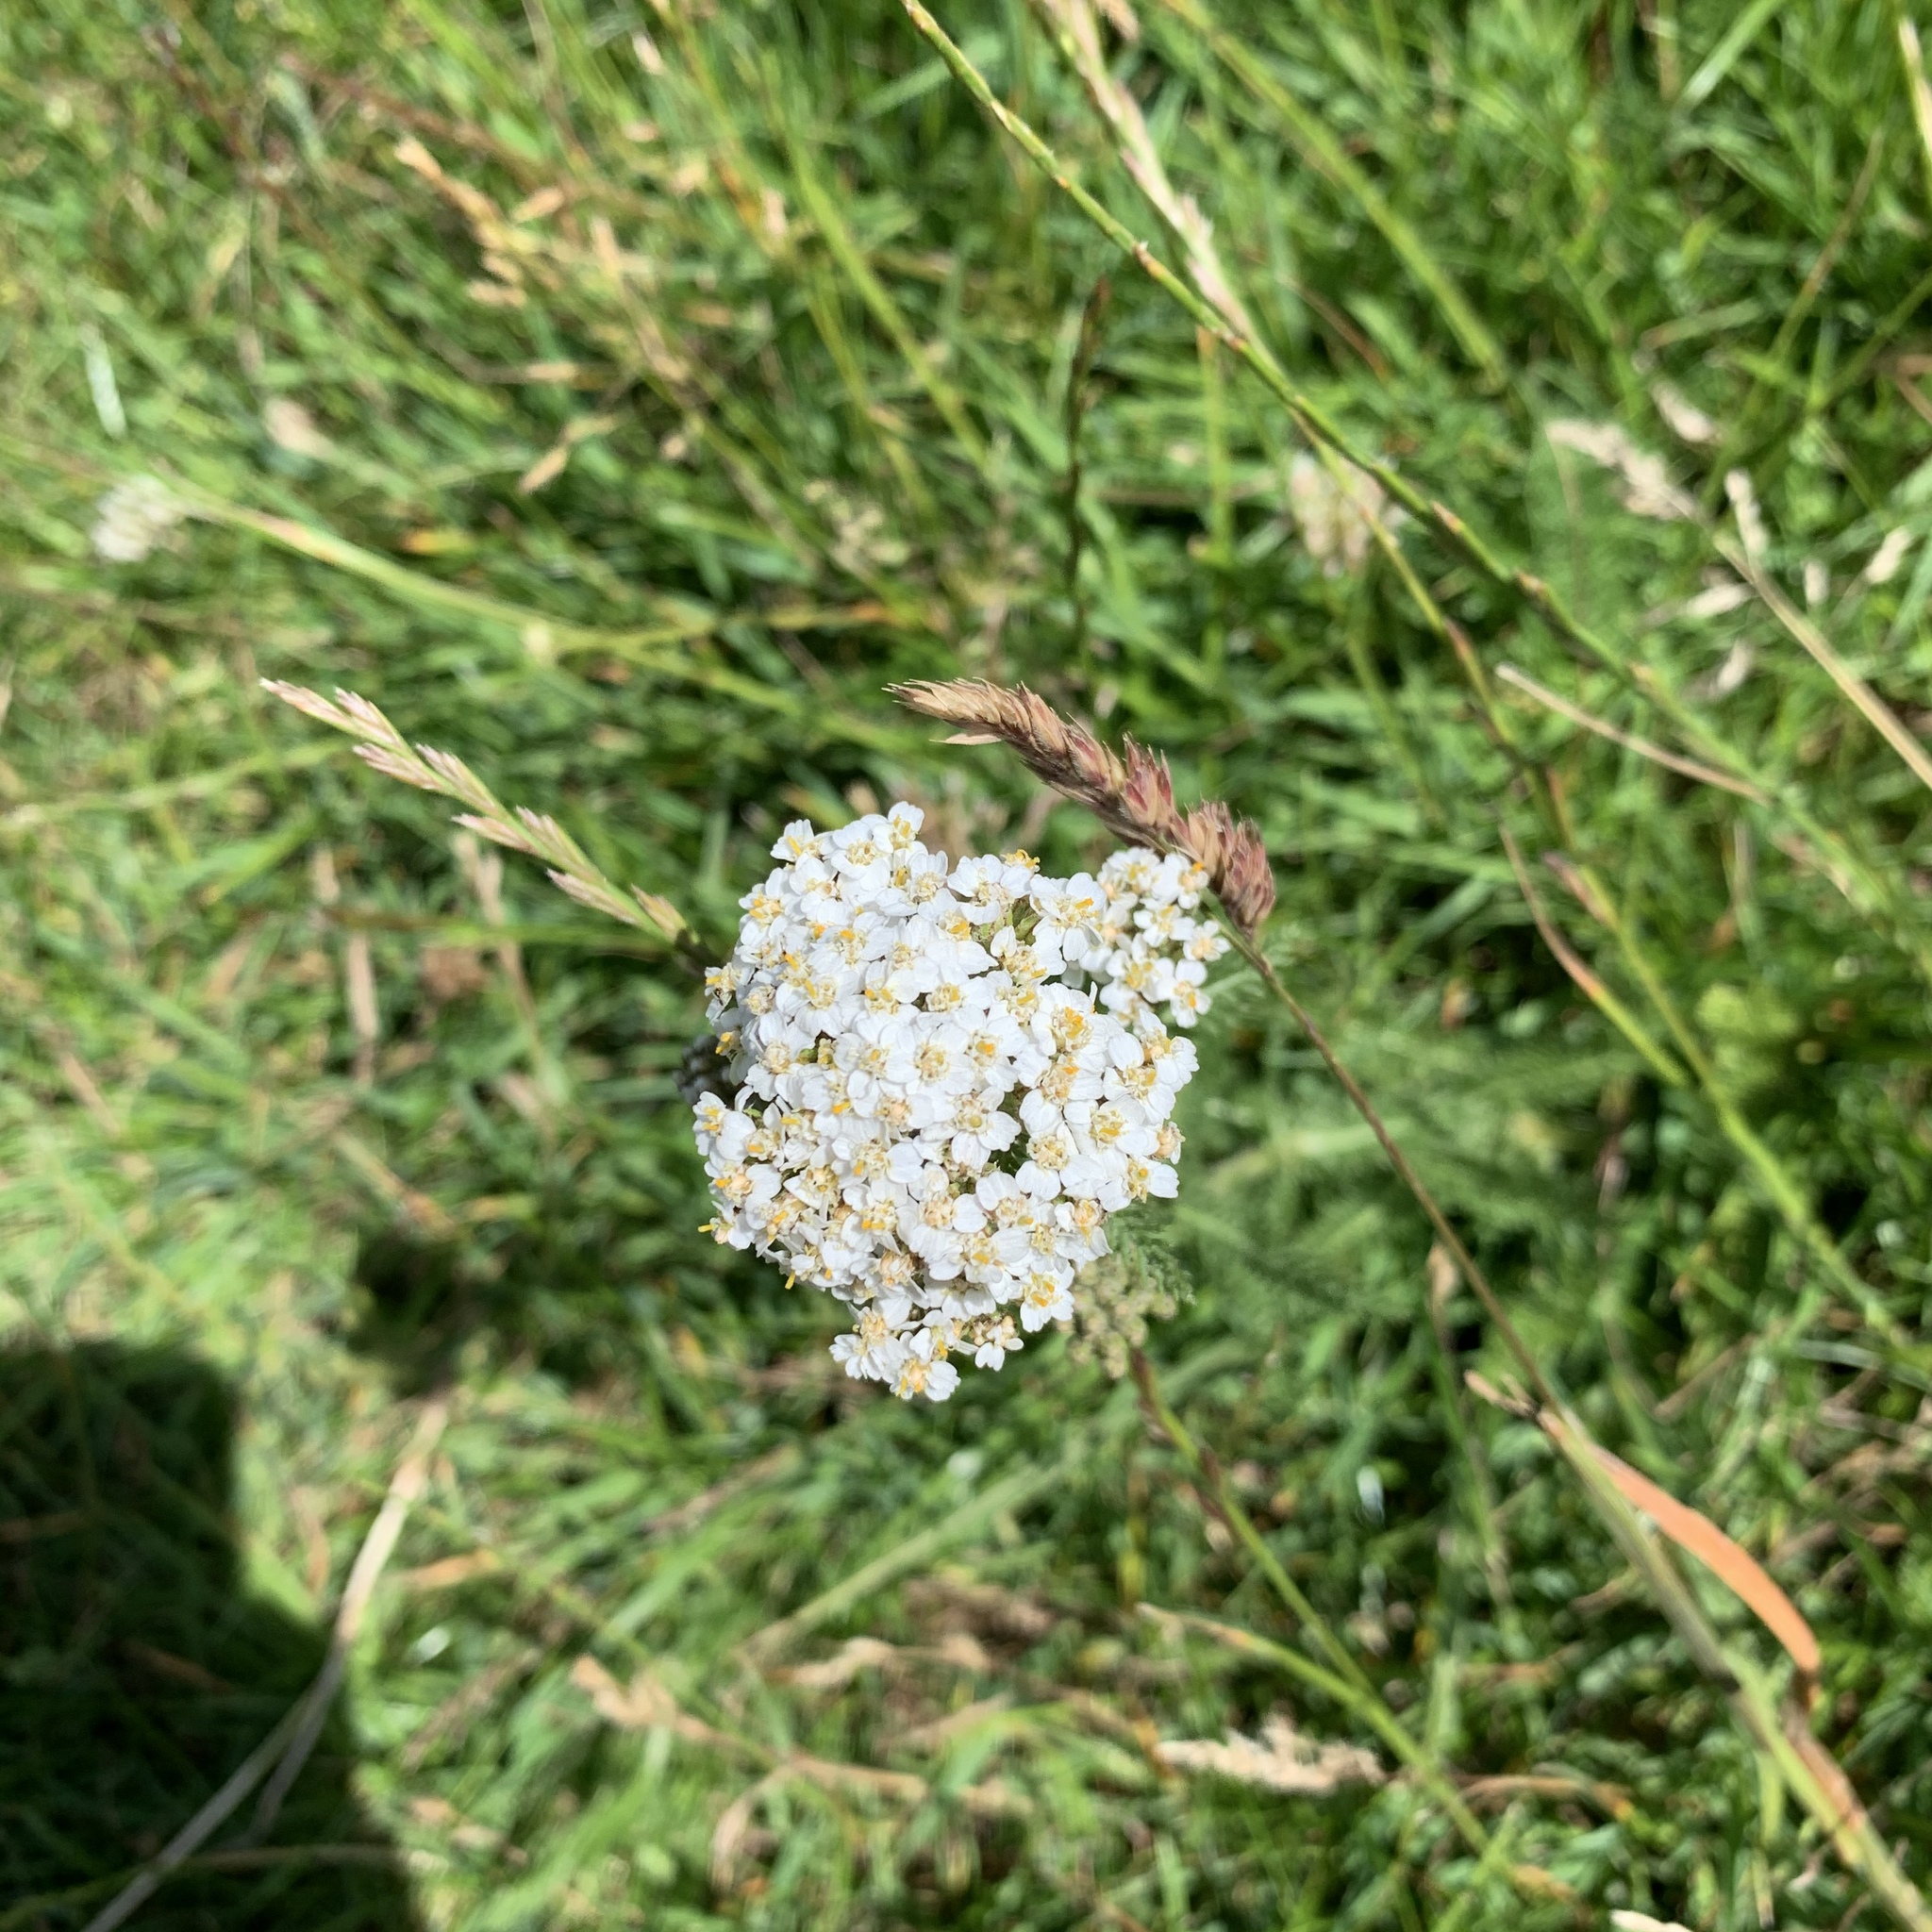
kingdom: Plantae
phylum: Tracheophyta
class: Magnoliopsida
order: Asterales
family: Asteraceae
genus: Achillea
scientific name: Achillea millefolium
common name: Yarrow
